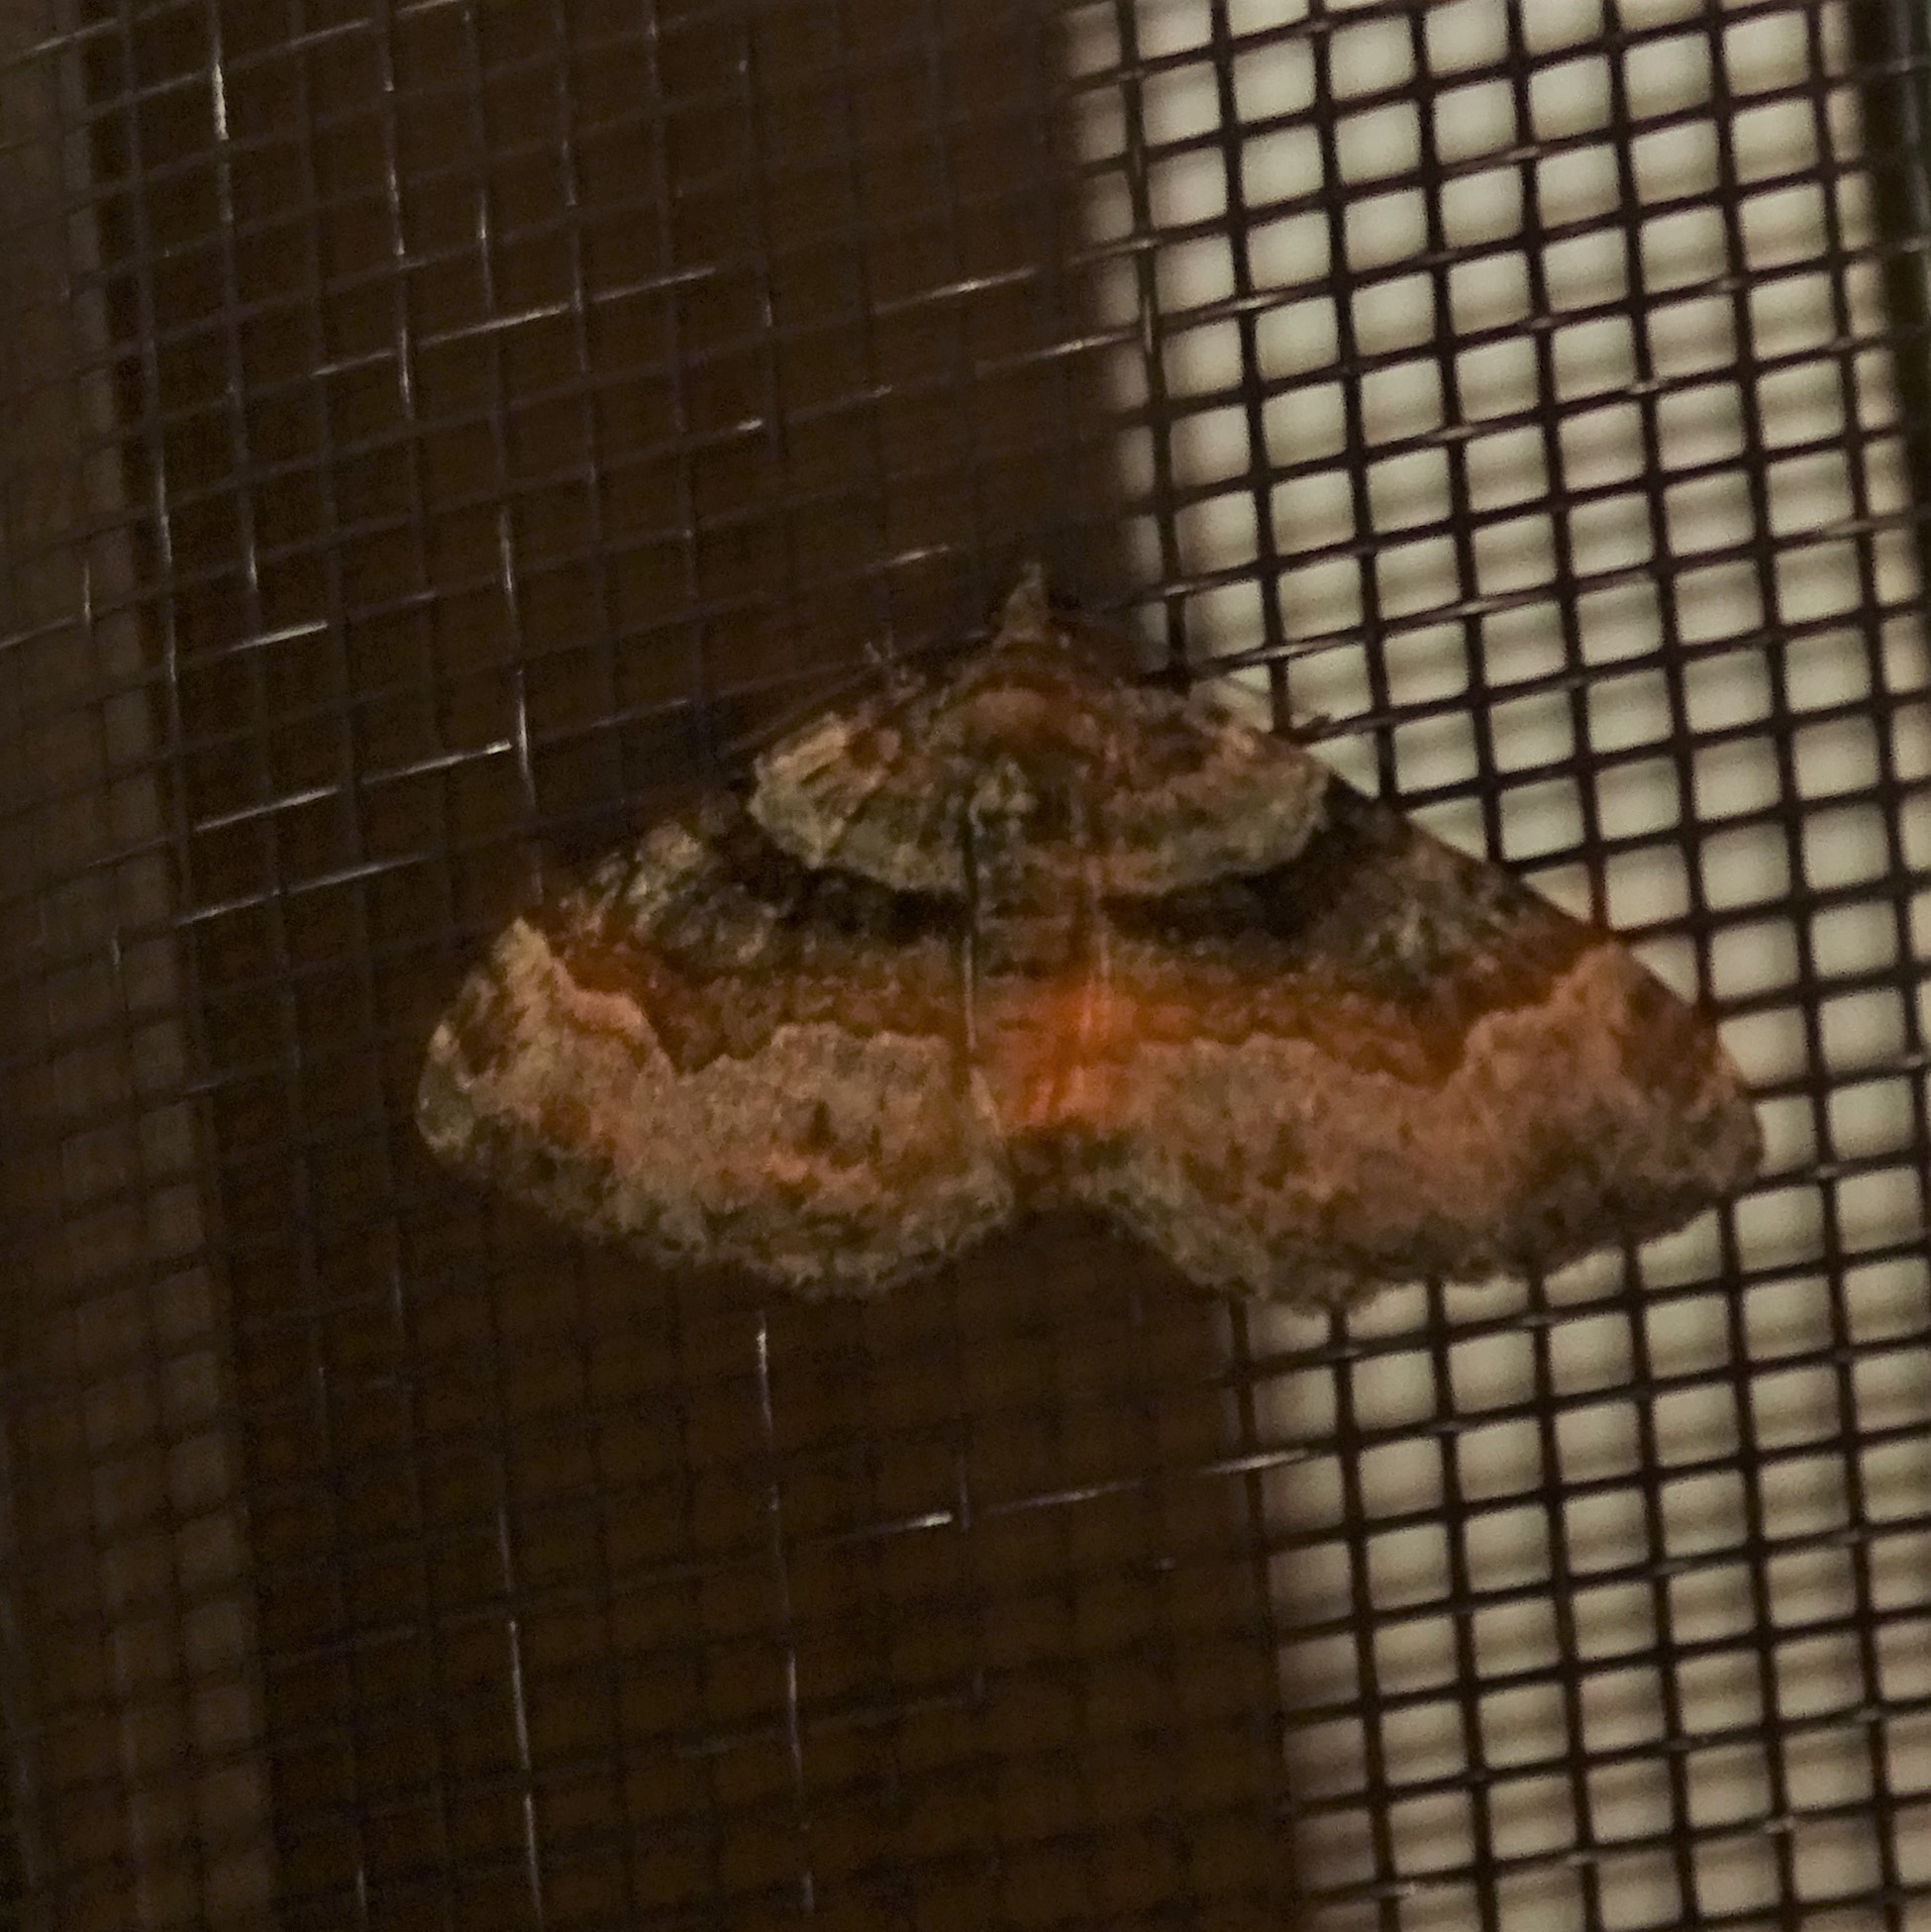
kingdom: Animalia
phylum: Arthropoda
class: Insecta
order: Lepidoptera
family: Geometridae
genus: Xanthorhoe
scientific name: Xanthorhoe lacustrata
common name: Toothed brown carpet
